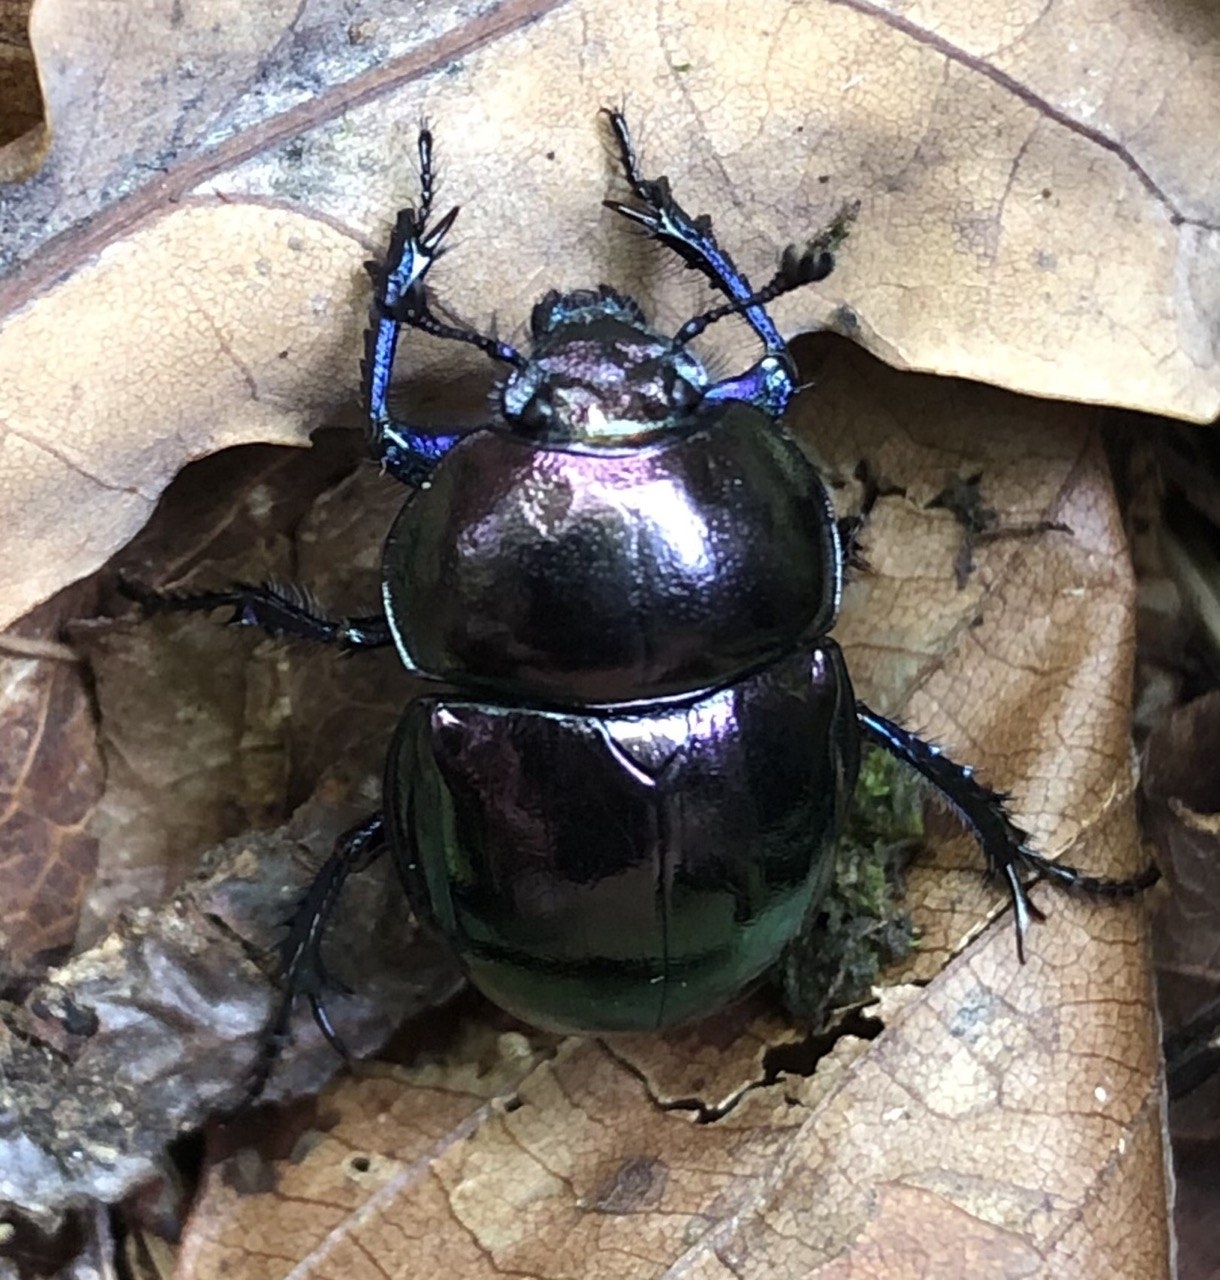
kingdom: Animalia
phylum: Arthropoda
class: Insecta
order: Coleoptera
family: Geotrupidae
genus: Trypocopris
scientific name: Trypocopris pyrenaeus
